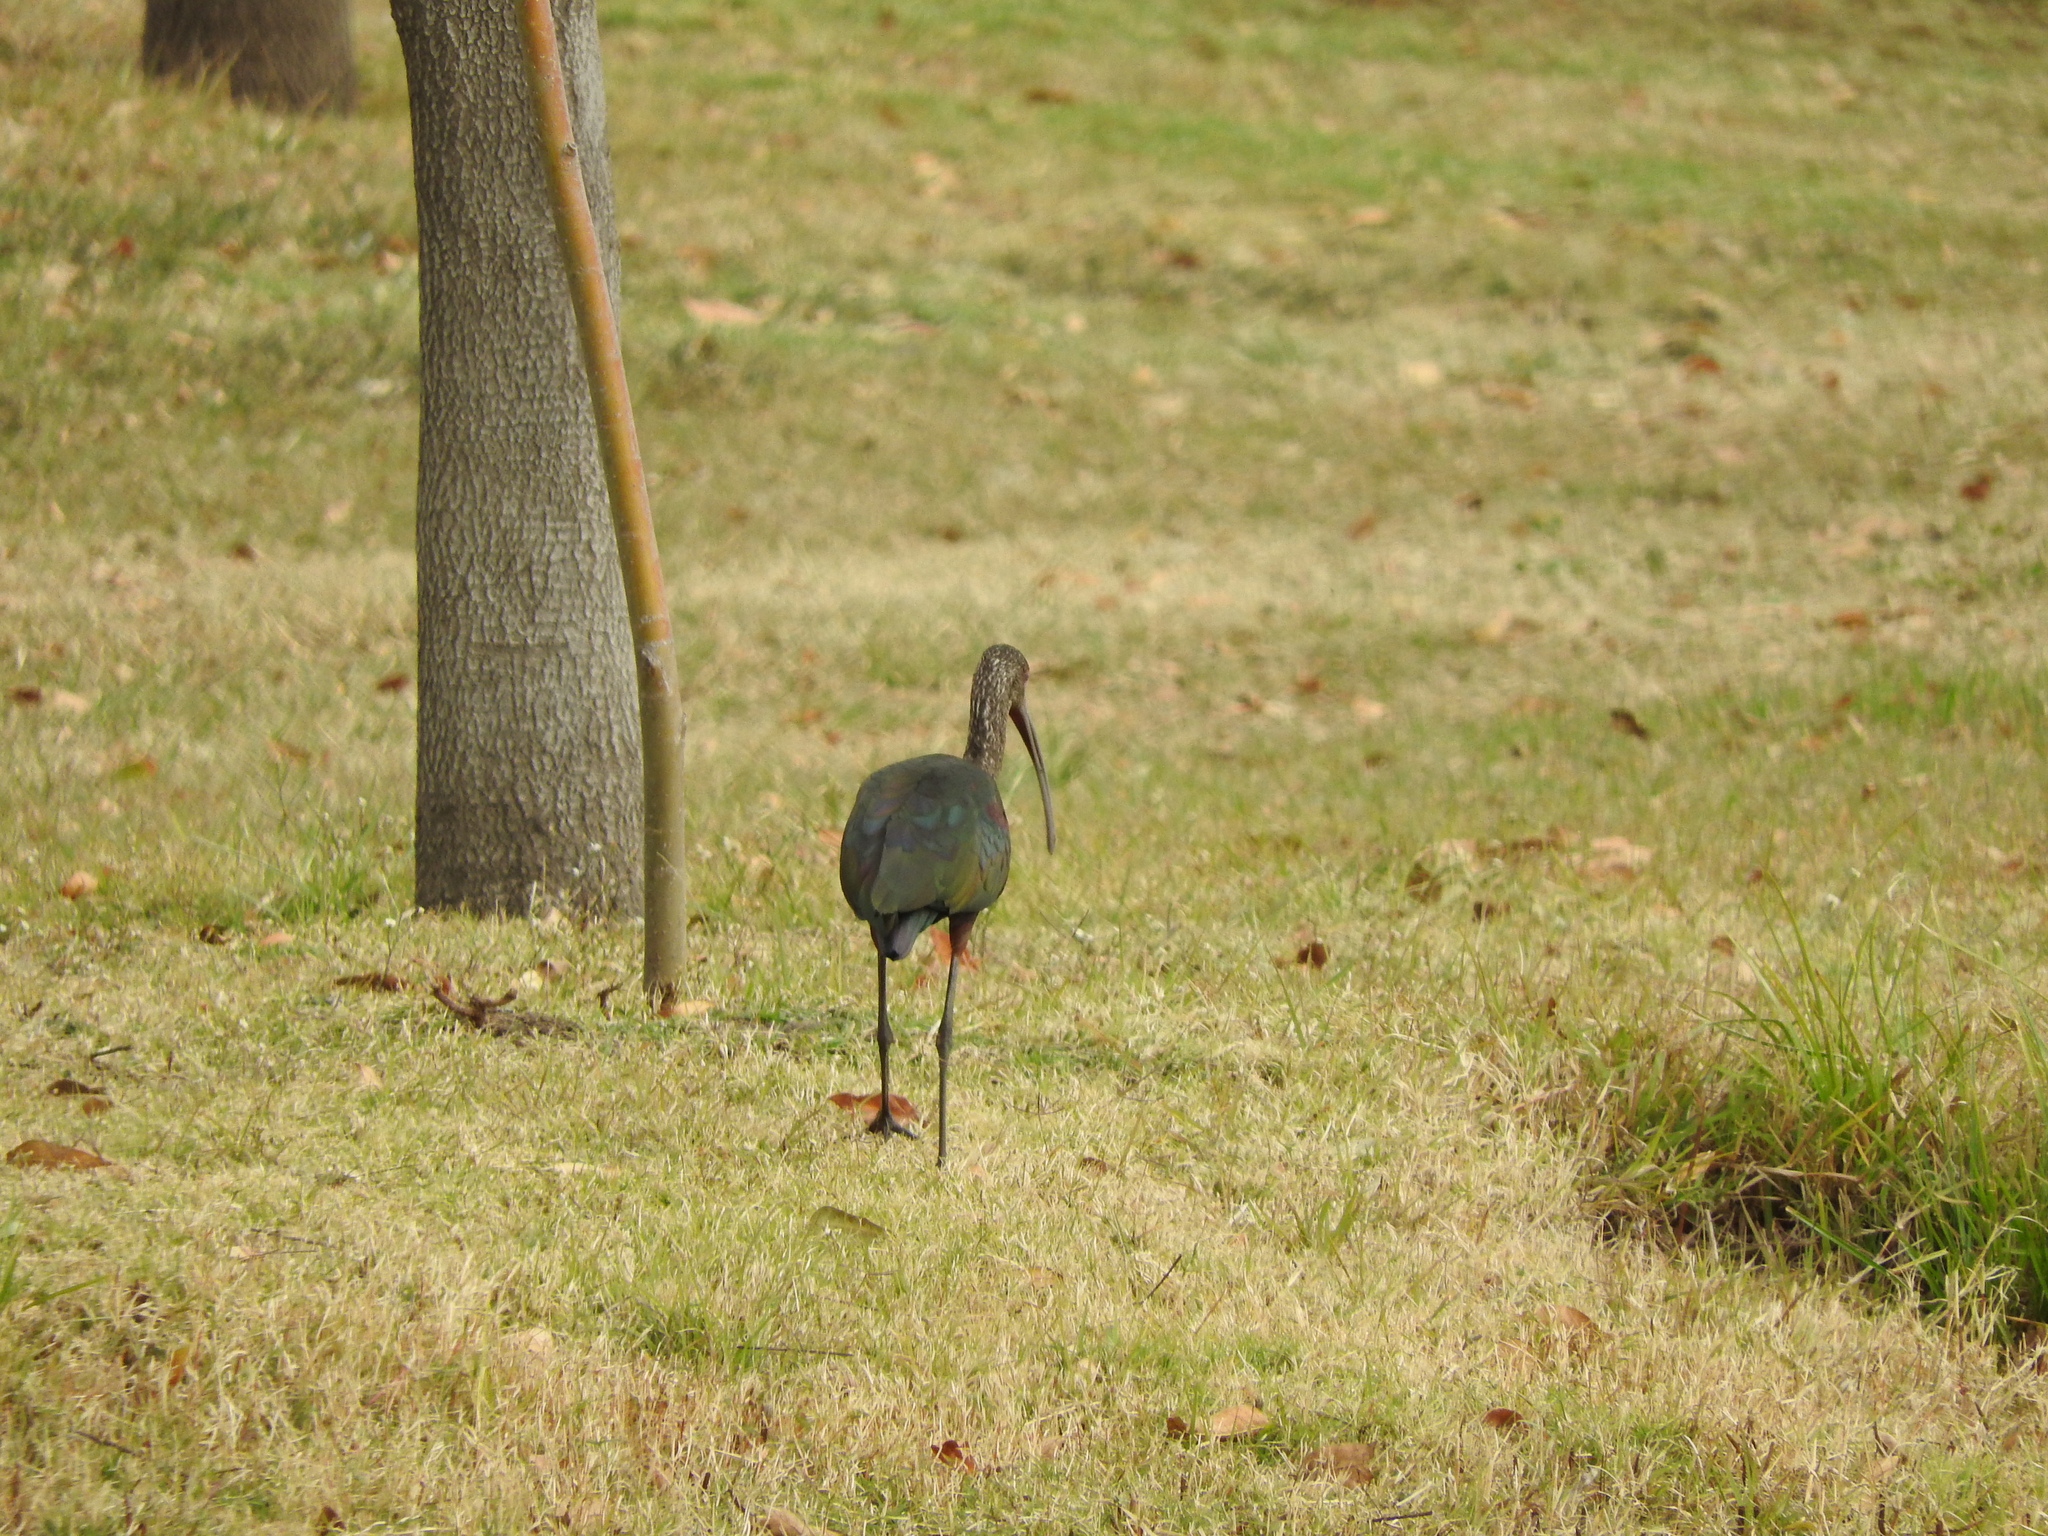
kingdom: Animalia
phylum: Chordata
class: Aves
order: Pelecaniformes
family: Threskiornithidae
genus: Plegadis
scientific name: Plegadis chihi
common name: White-faced ibis
